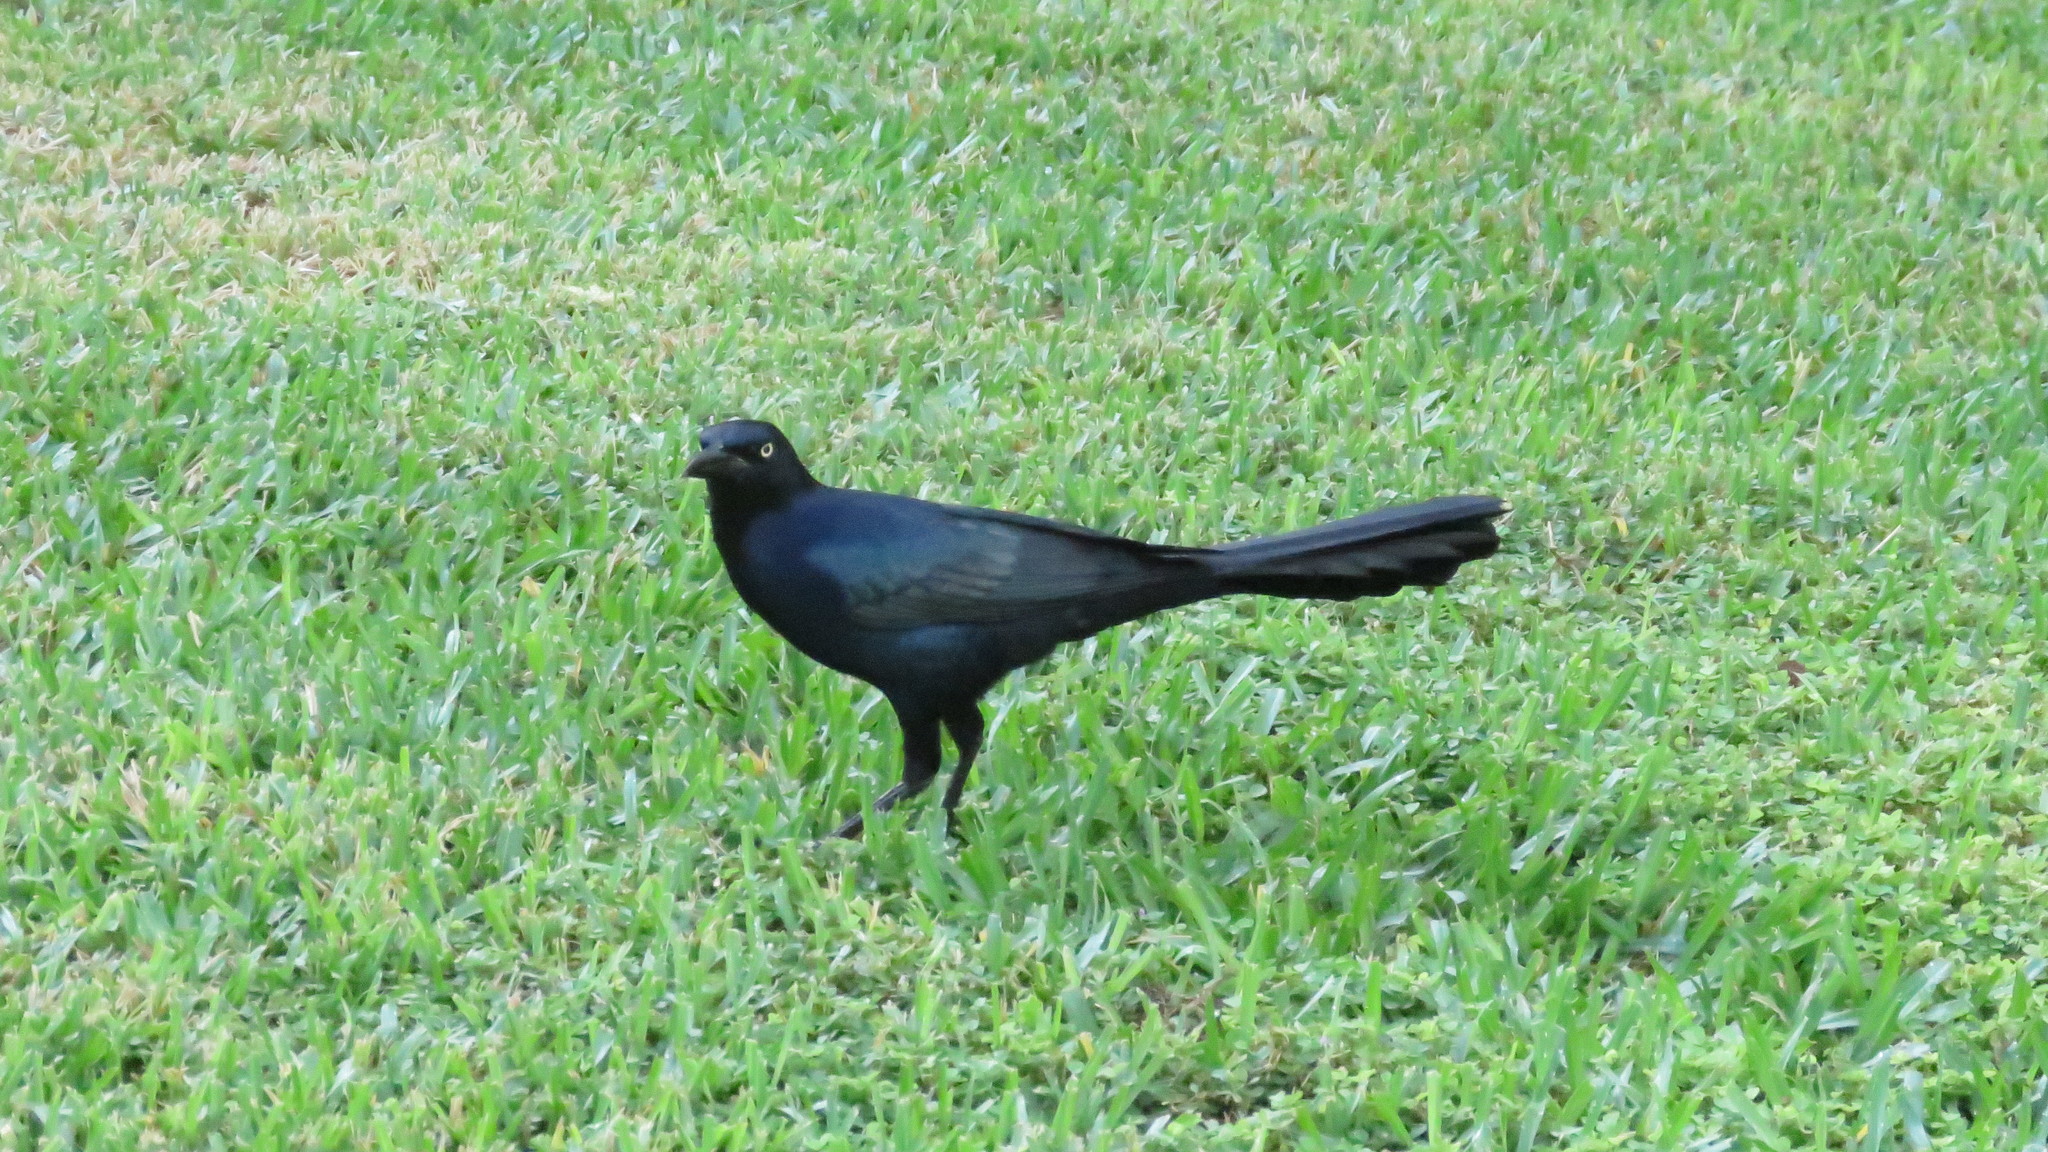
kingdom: Animalia
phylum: Chordata
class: Aves
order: Passeriformes
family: Icteridae
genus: Quiscalus
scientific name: Quiscalus mexicanus
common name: Great-tailed grackle
